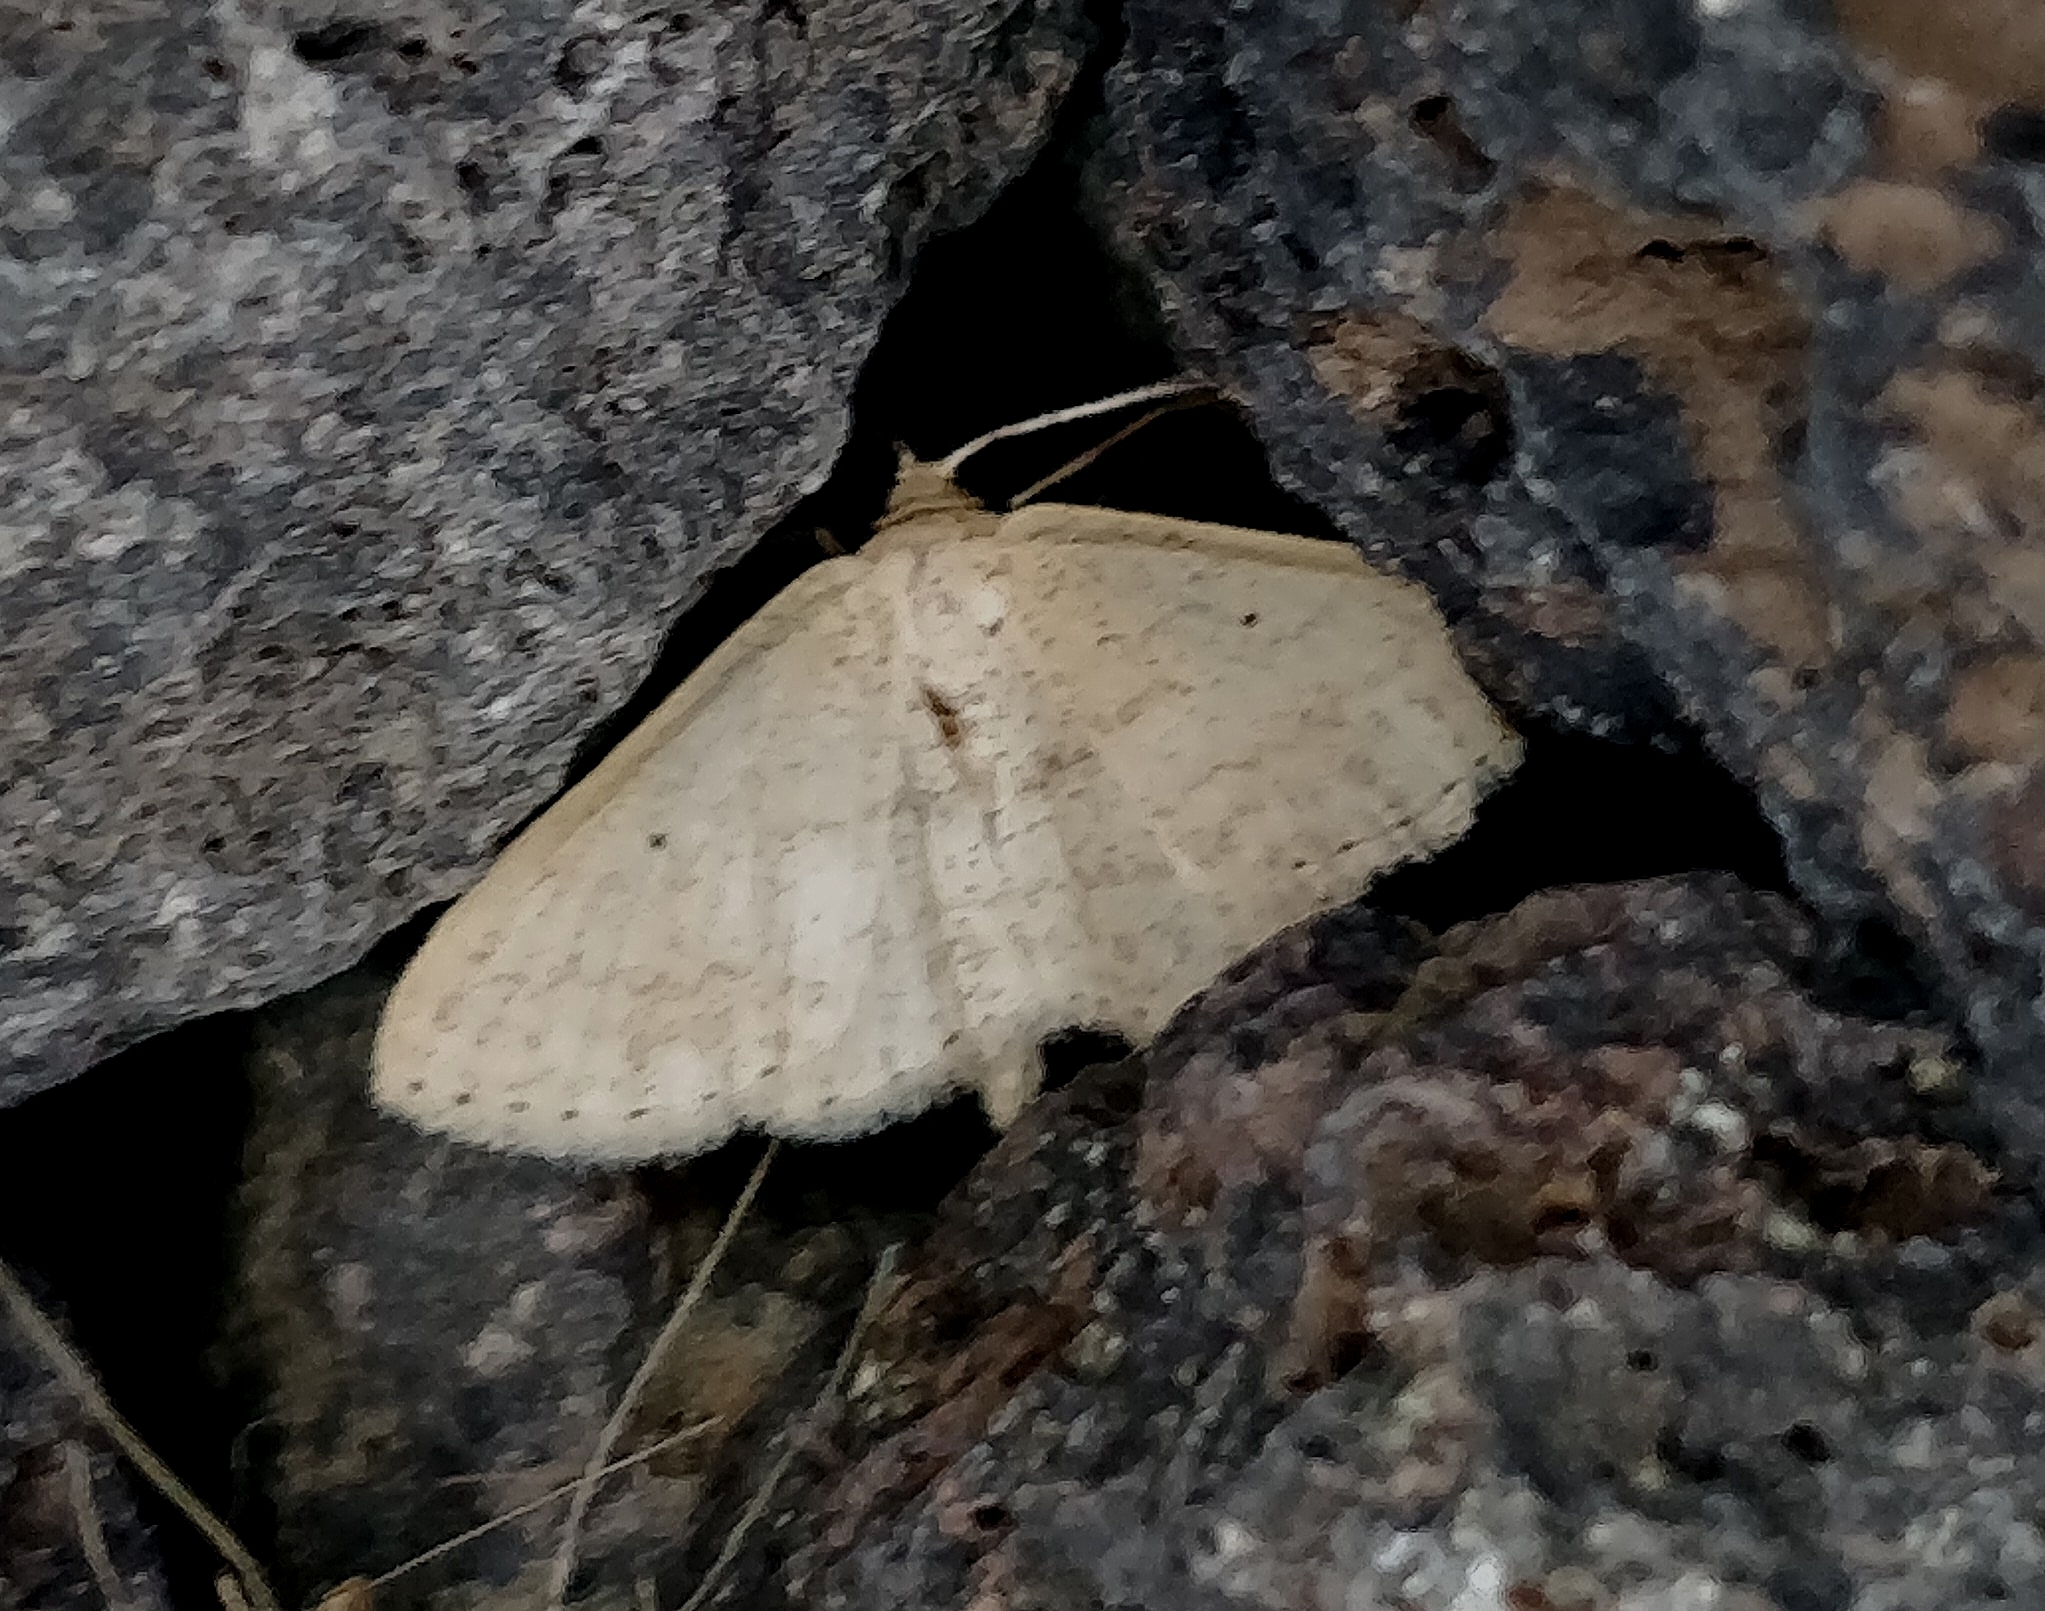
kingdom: Animalia
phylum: Arthropoda
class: Insecta
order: Lepidoptera
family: Geometridae
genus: Scopula
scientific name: Scopula minorata
